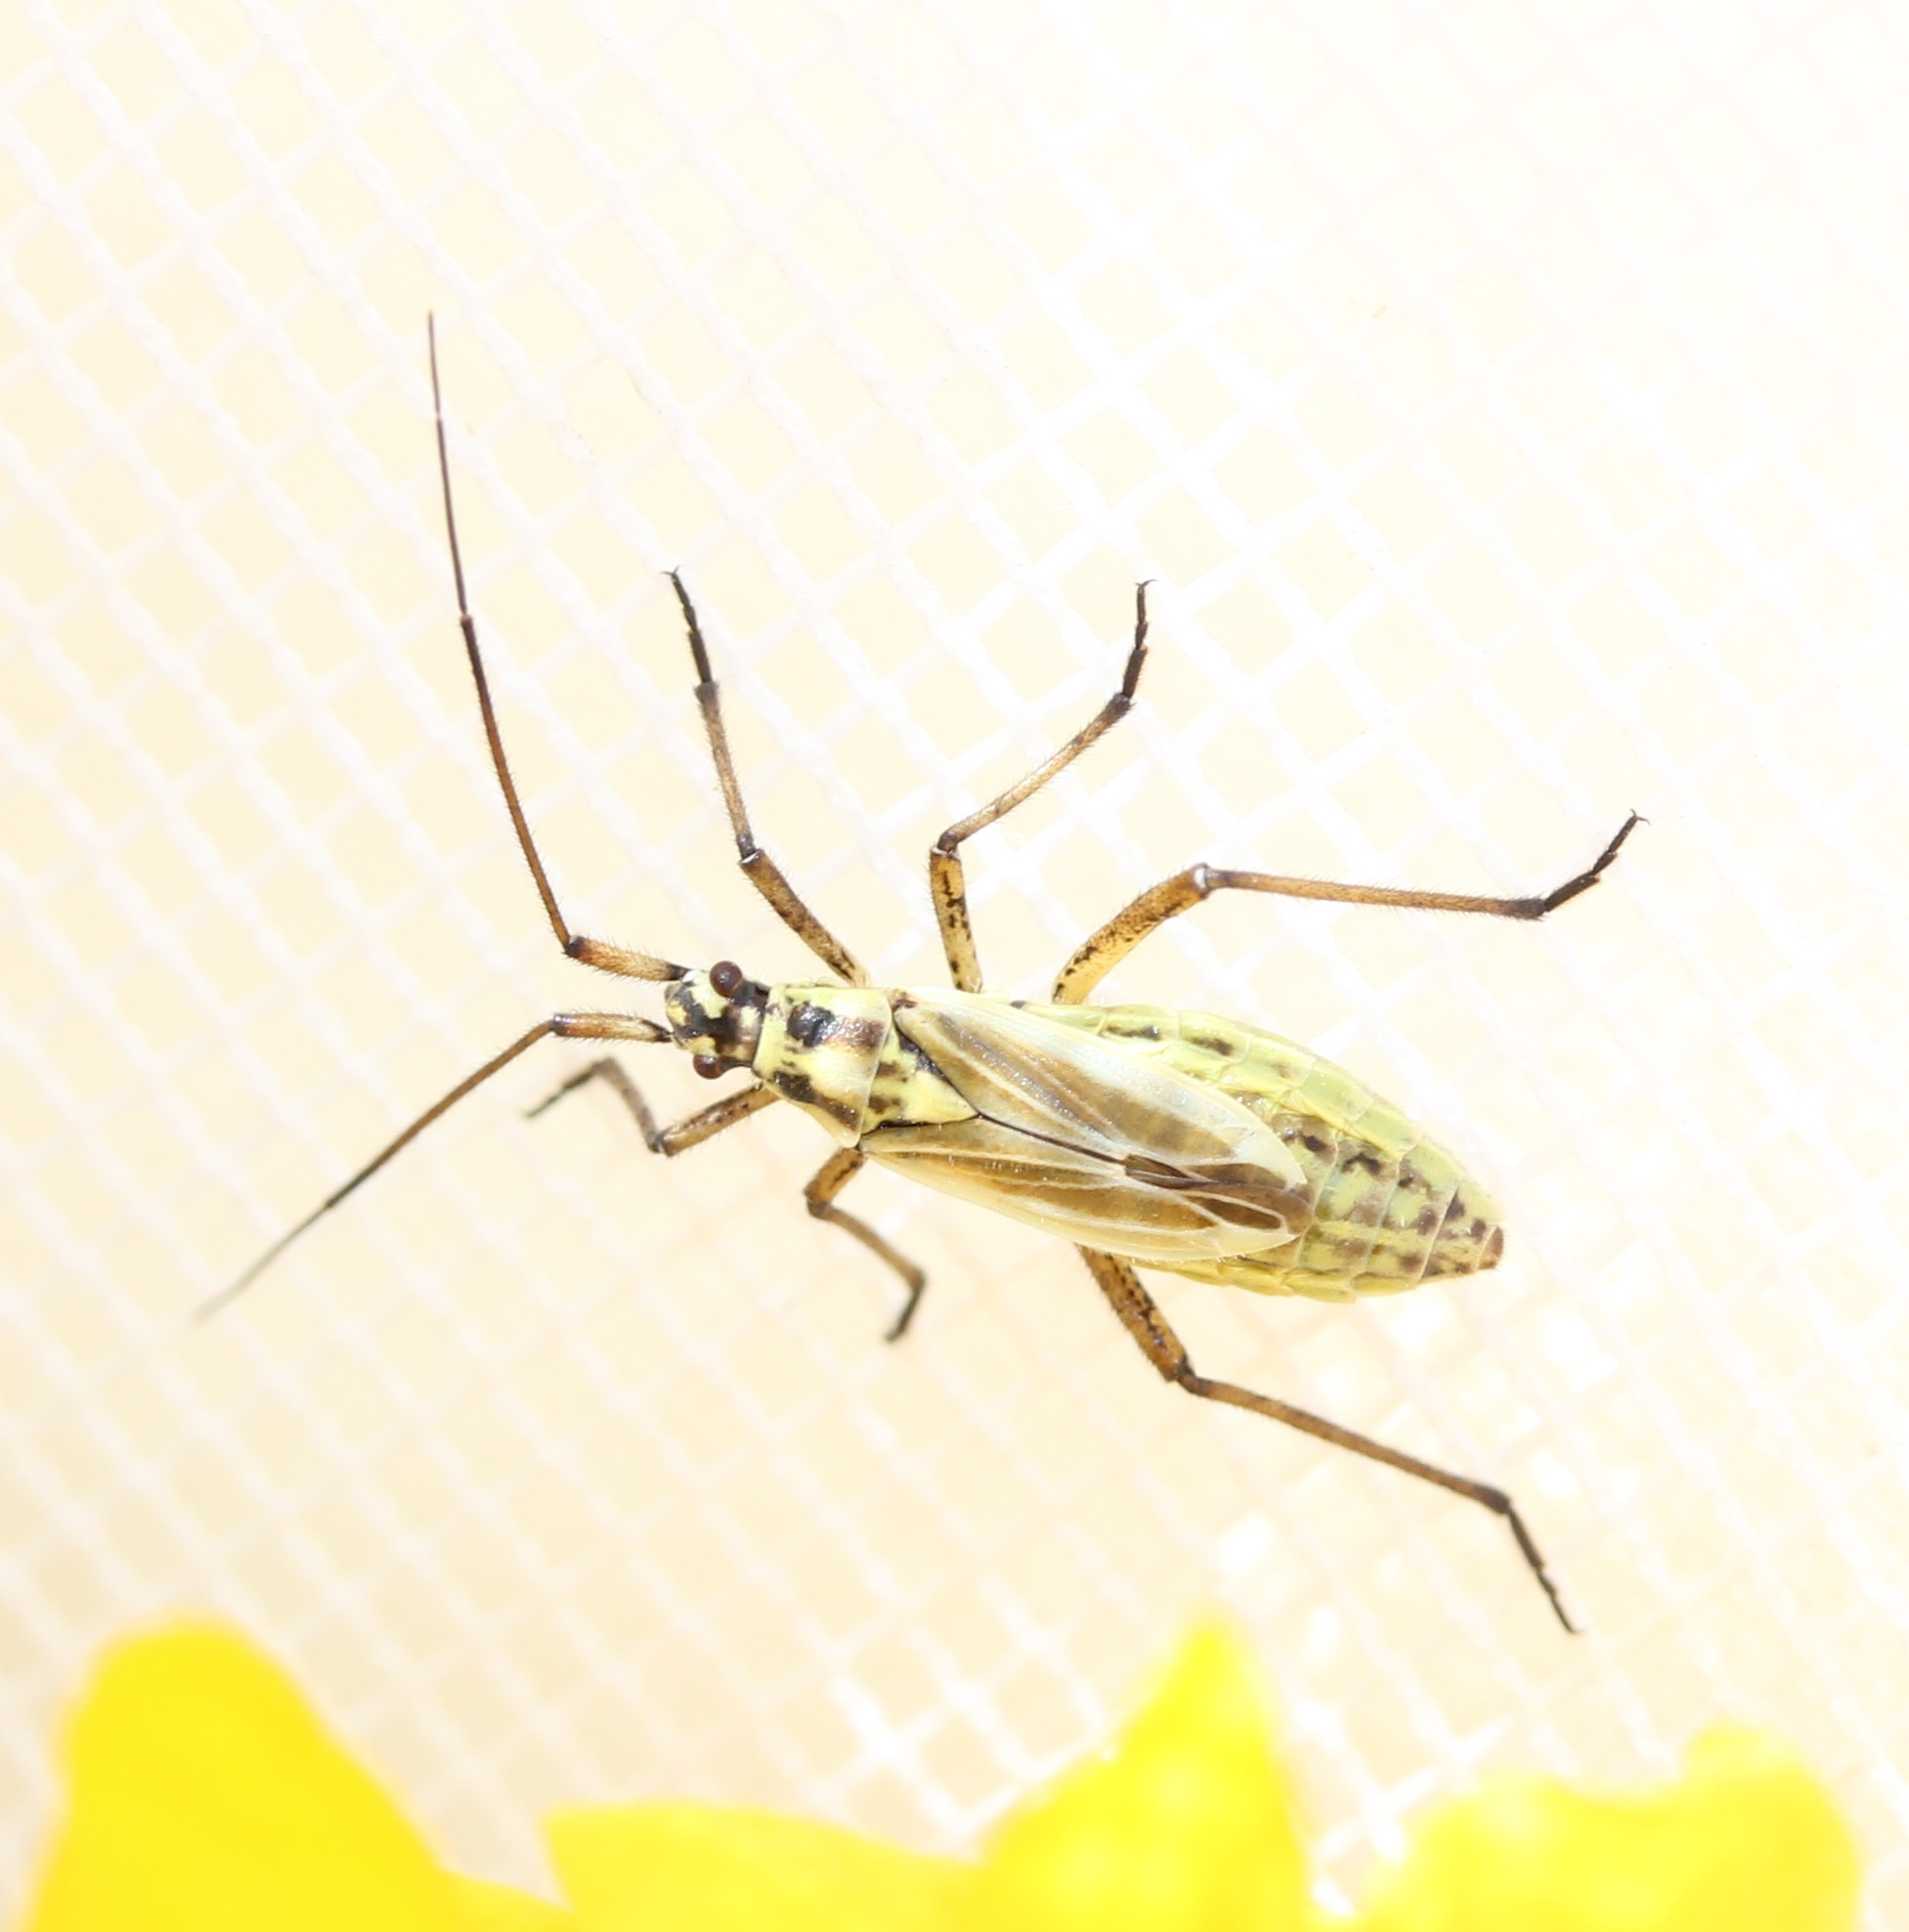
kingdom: Animalia
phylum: Arthropoda
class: Insecta
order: Hemiptera
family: Miridae
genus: Leptopterna
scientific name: Leptopterna dolabrata
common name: Meadow plant bug
